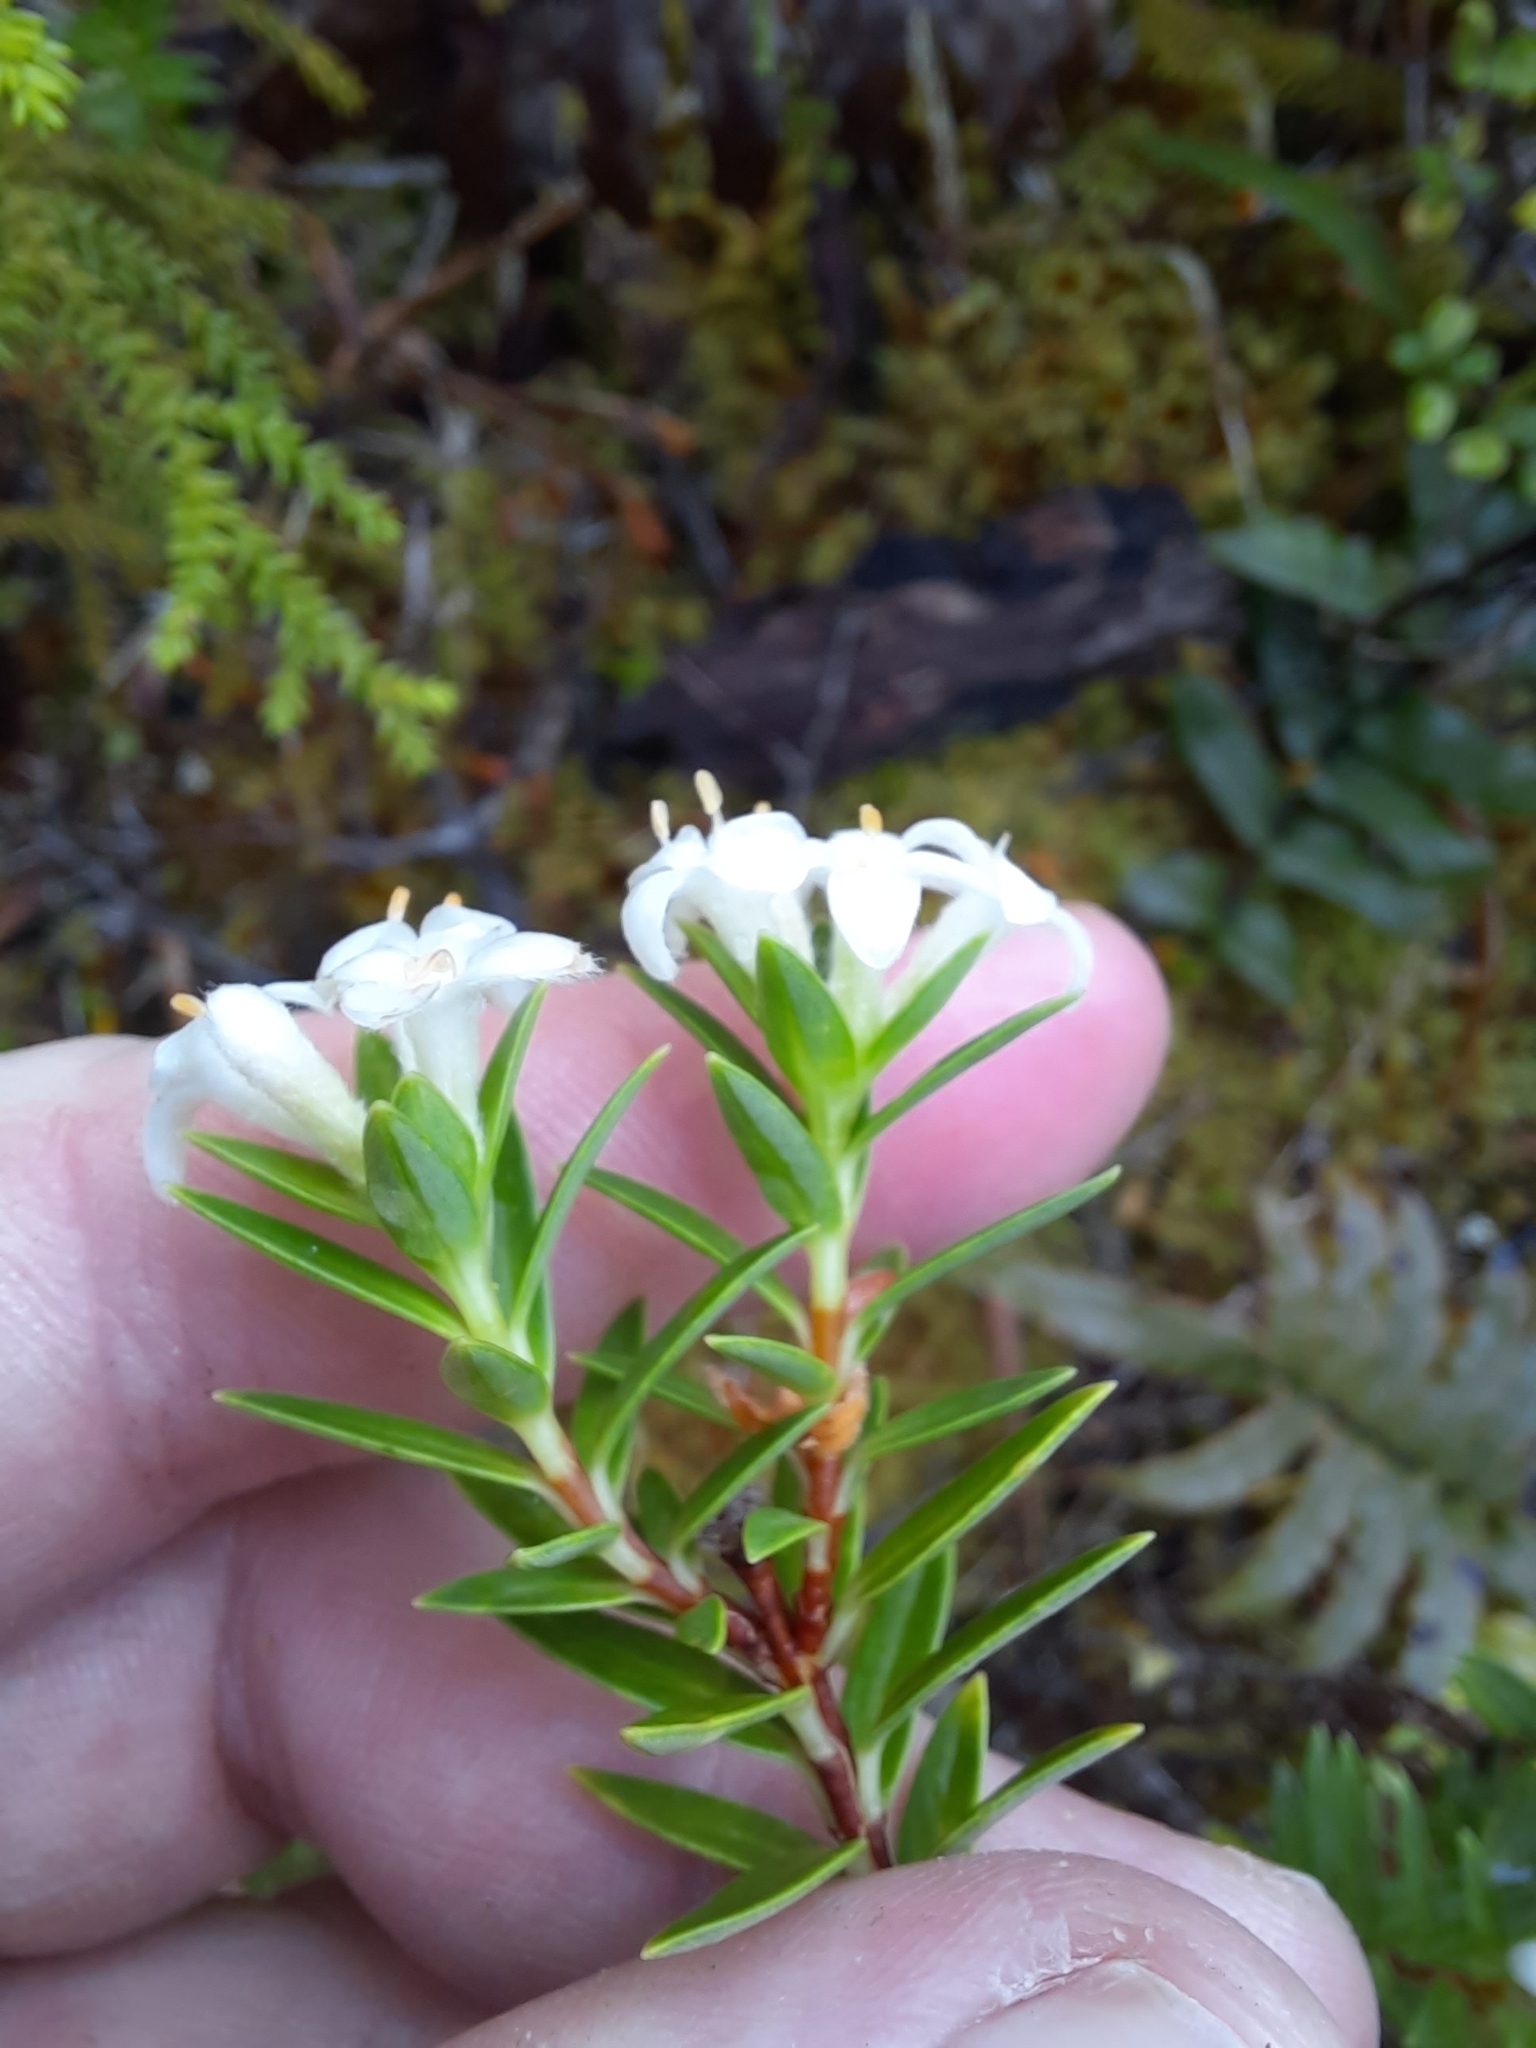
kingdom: Plantae
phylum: Tracheophyta
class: Magnoliopsida
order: Malvales
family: Thymelaeaceae
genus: Pimelea
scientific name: Pimelea gnidia
